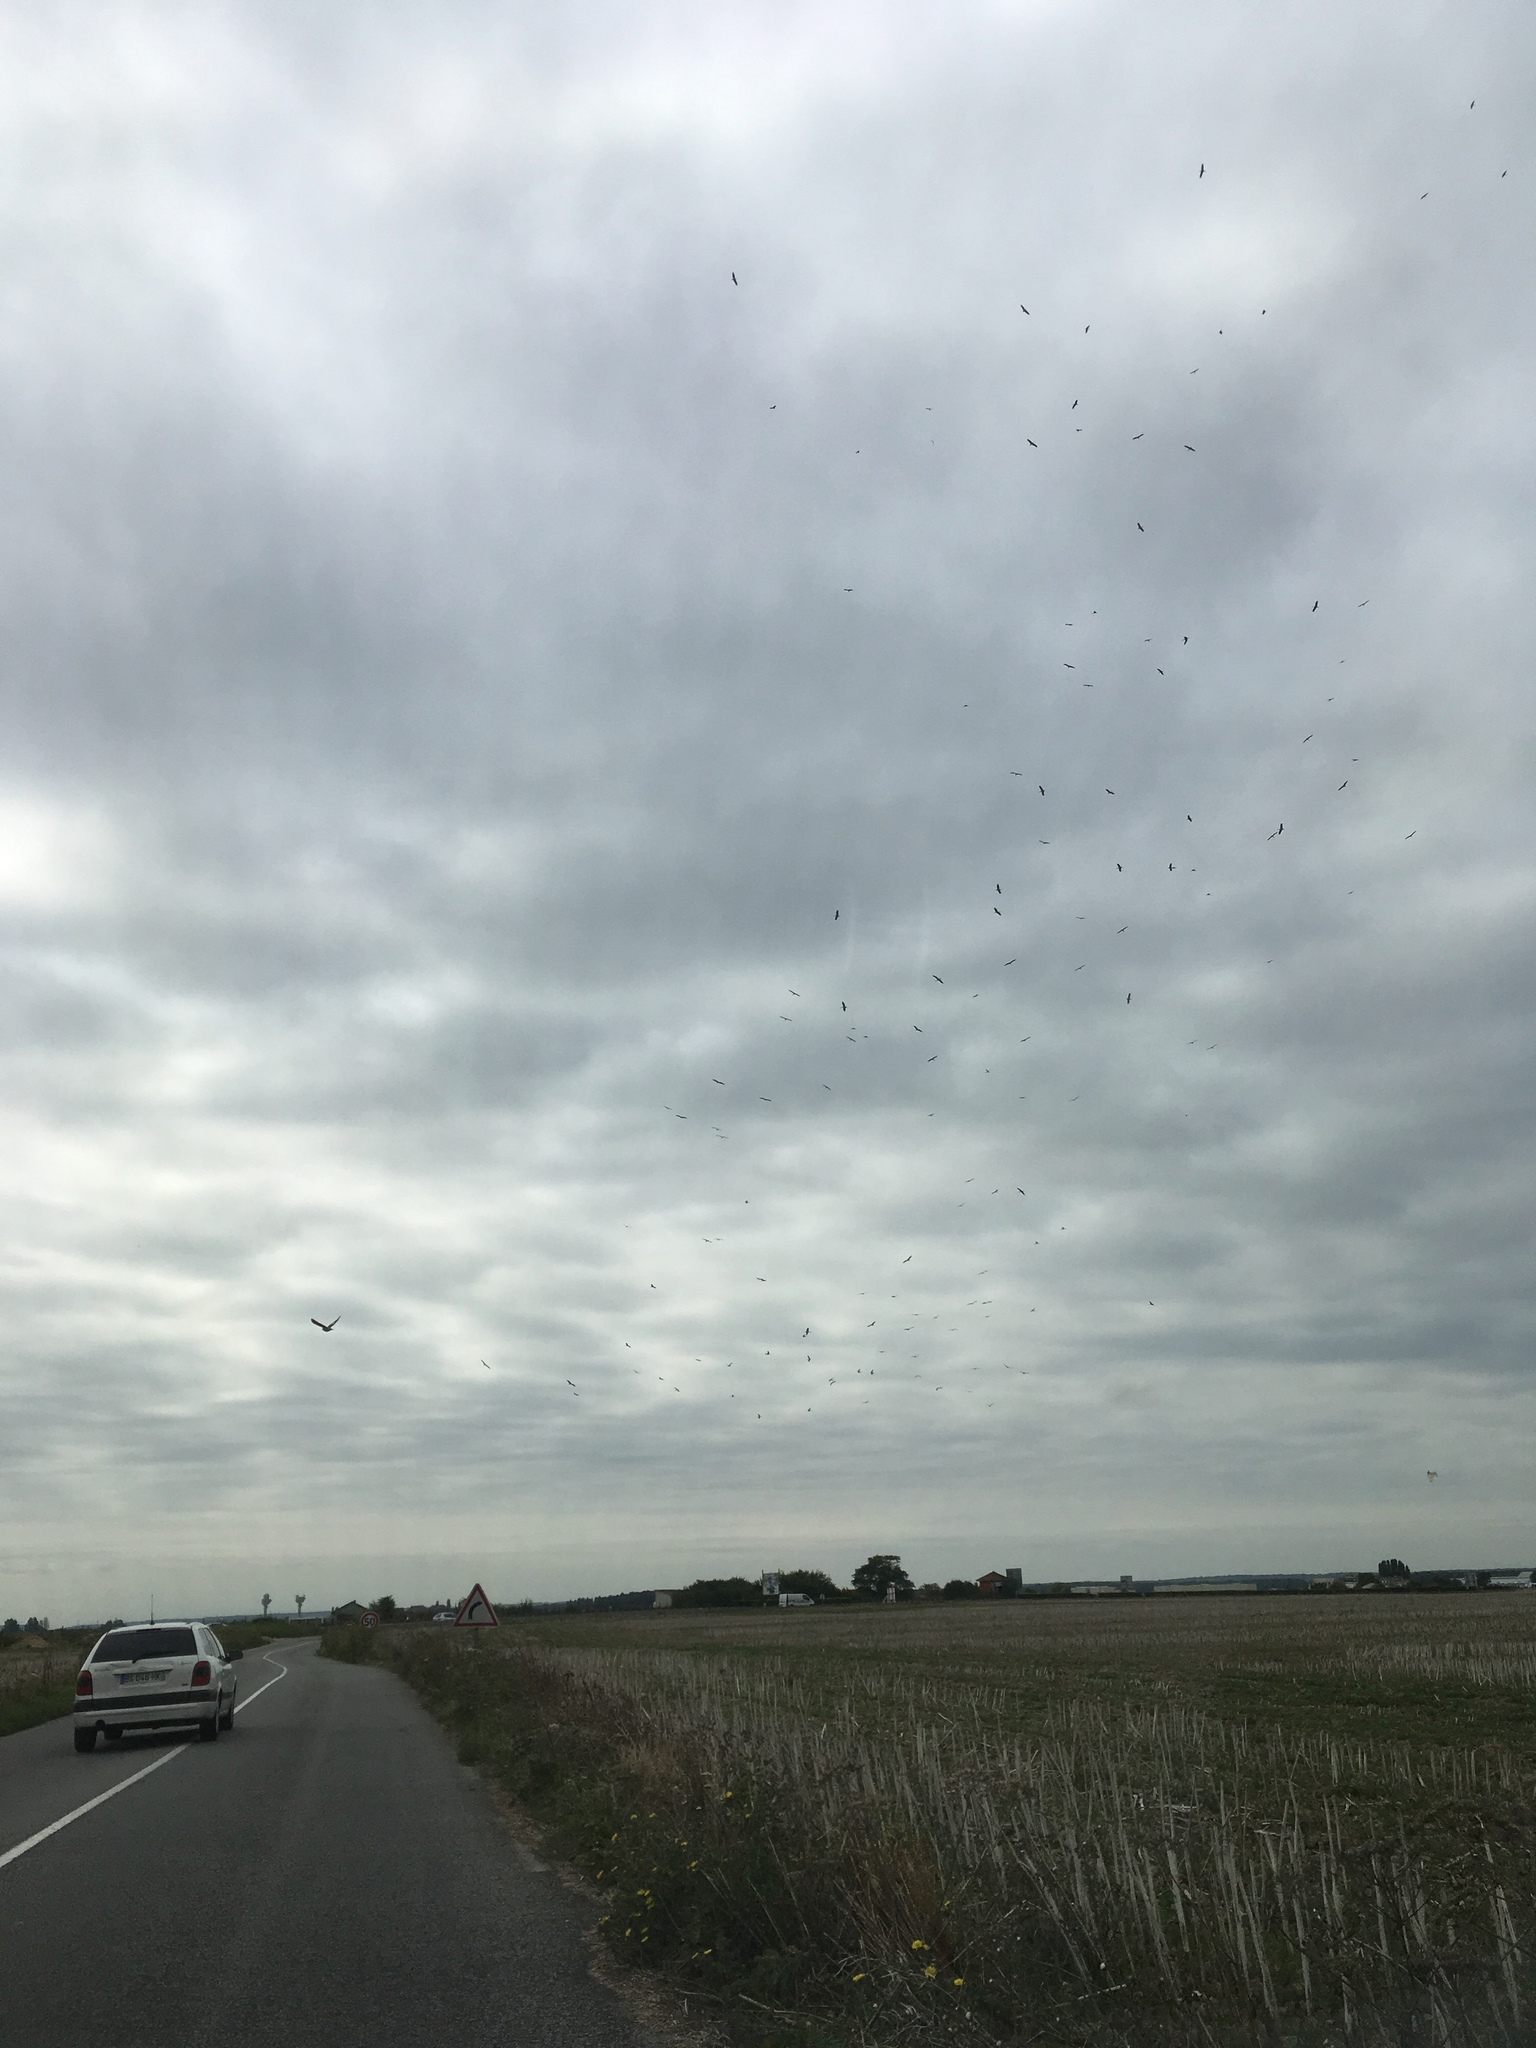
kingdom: Animalia
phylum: Chordata
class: Aves
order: Ciconiiformes
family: Ciconiidae
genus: Ciconia
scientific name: Ciconia ciconia
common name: White stork
